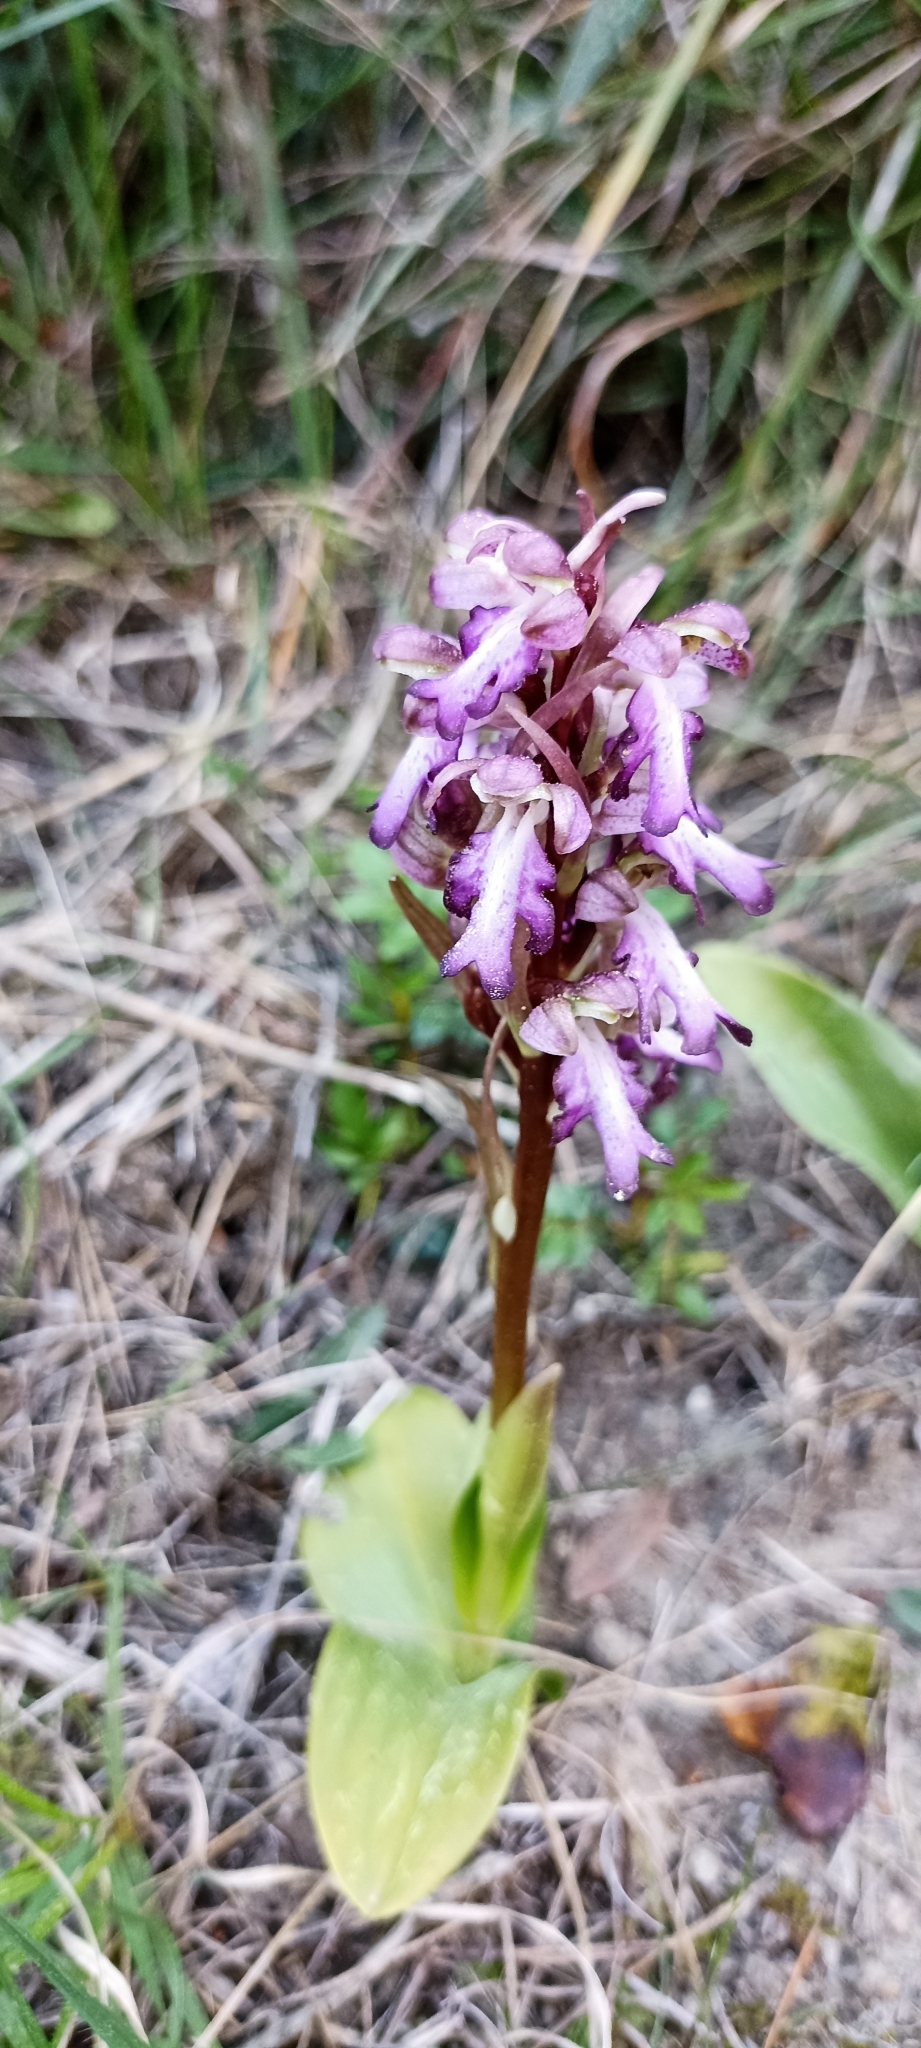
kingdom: Plantae
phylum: Tracheophyta
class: Liliopsida
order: Asparagales
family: Orchidaceae
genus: Himantoglossum
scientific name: Himantoglossum robertianum
